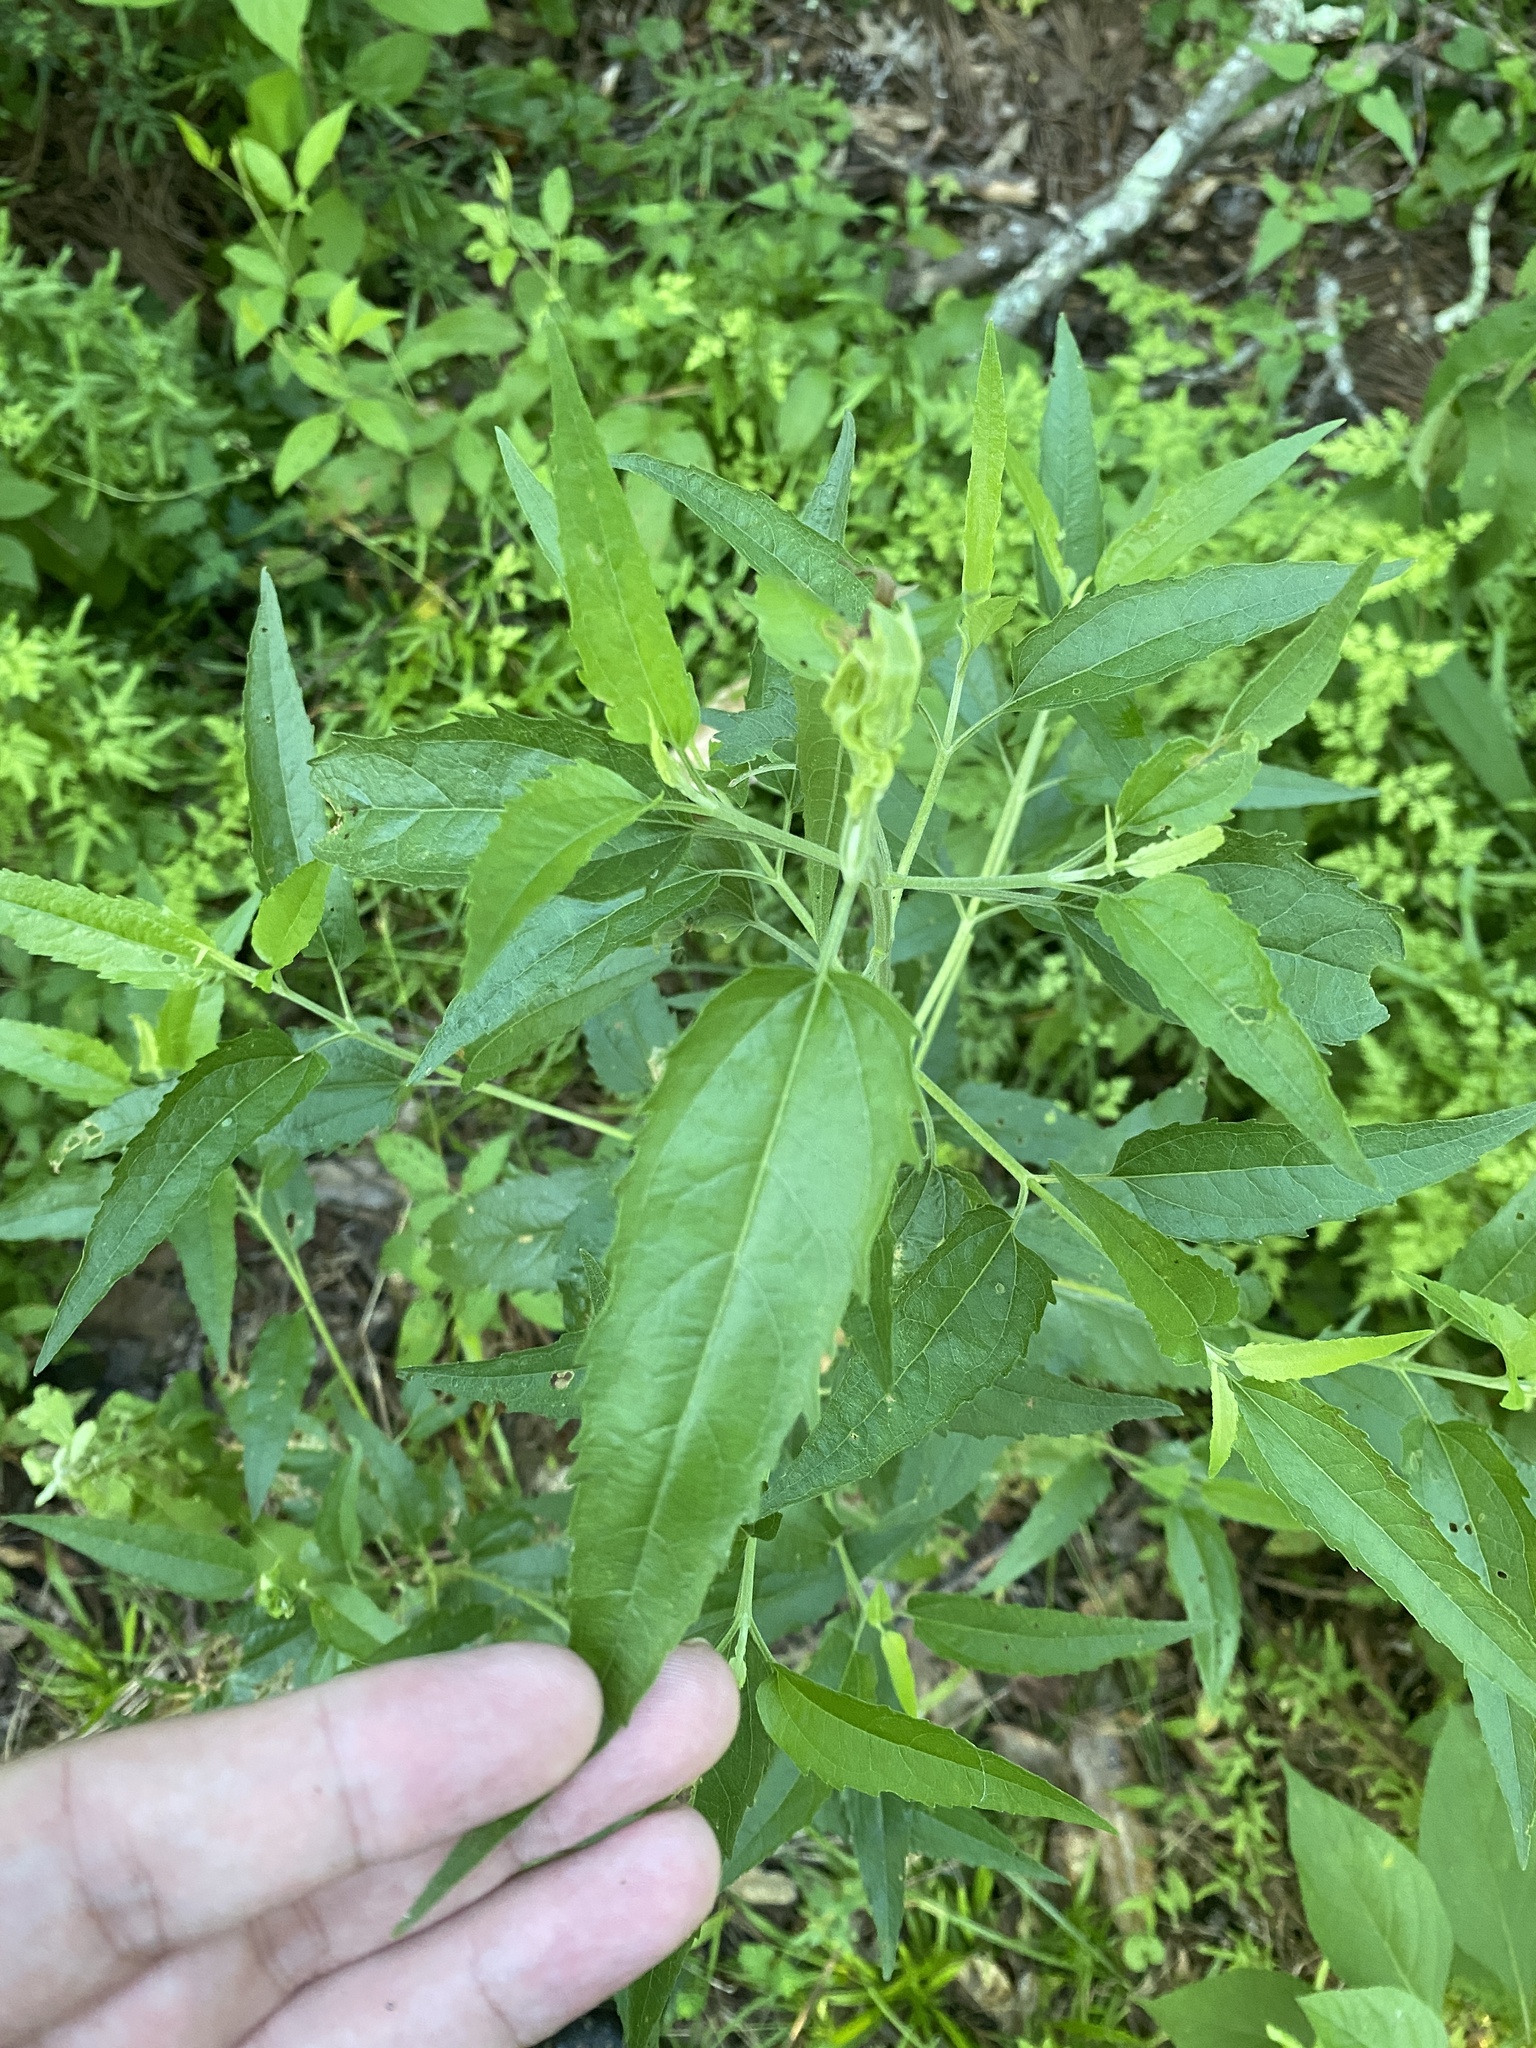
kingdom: Plantae
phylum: Tracheophyta
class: Magnoliopsida
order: Asterales
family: Asteraceae
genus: Eupatorium
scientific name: Eupatorium serotinum
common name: Late boneset
